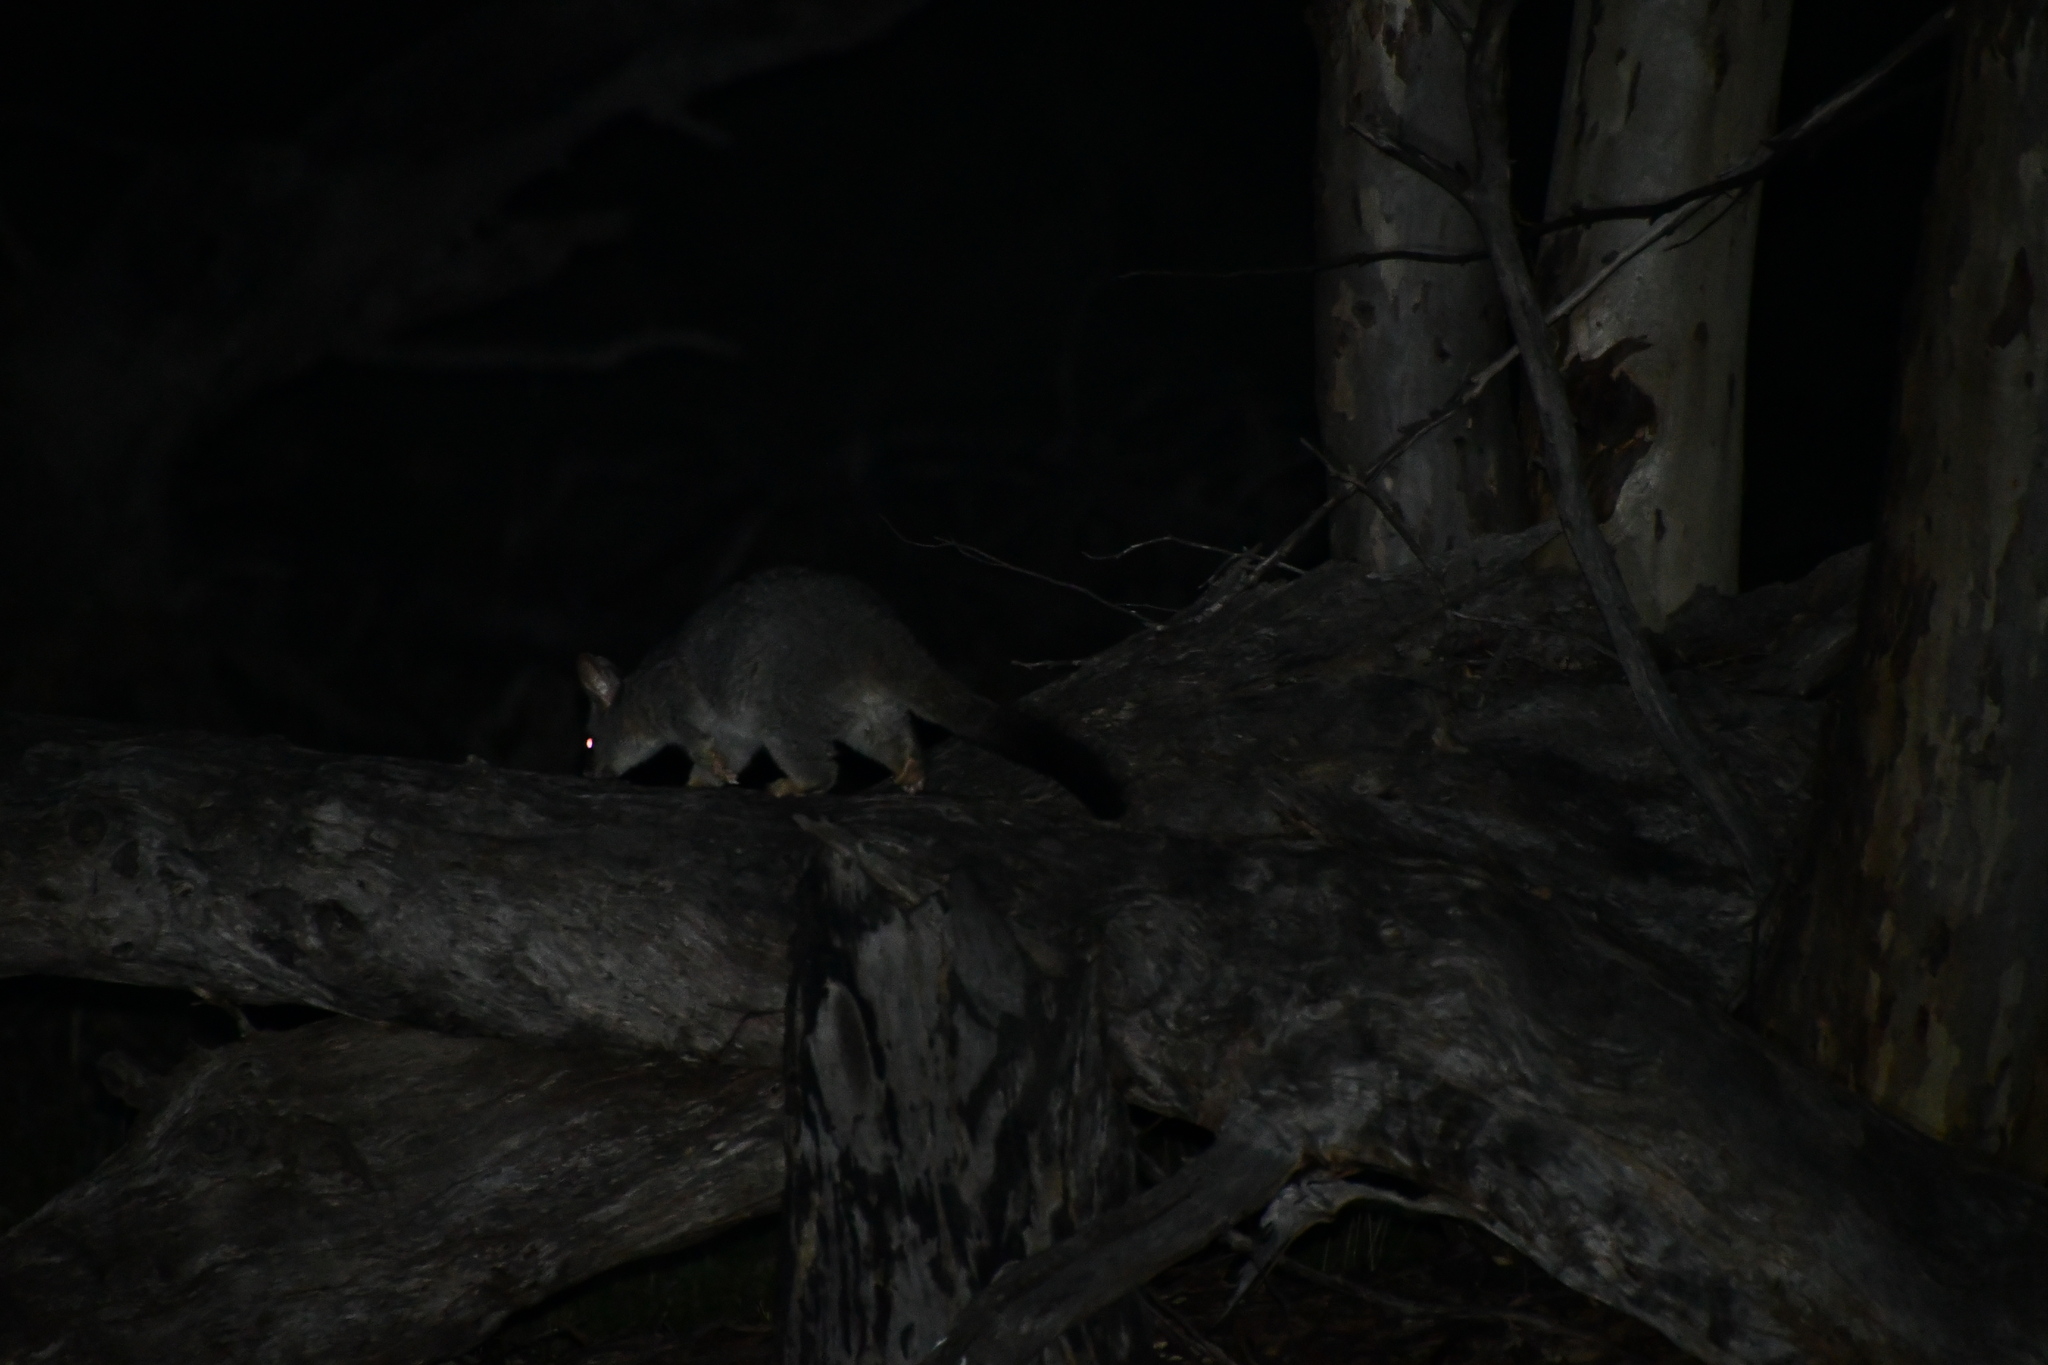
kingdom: Animalia
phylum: Chordata
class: Mammalia
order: Diprotodontia
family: Phalangeridae
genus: Trichosurus
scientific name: Trichosurus vulpecula
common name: Common brushtail
